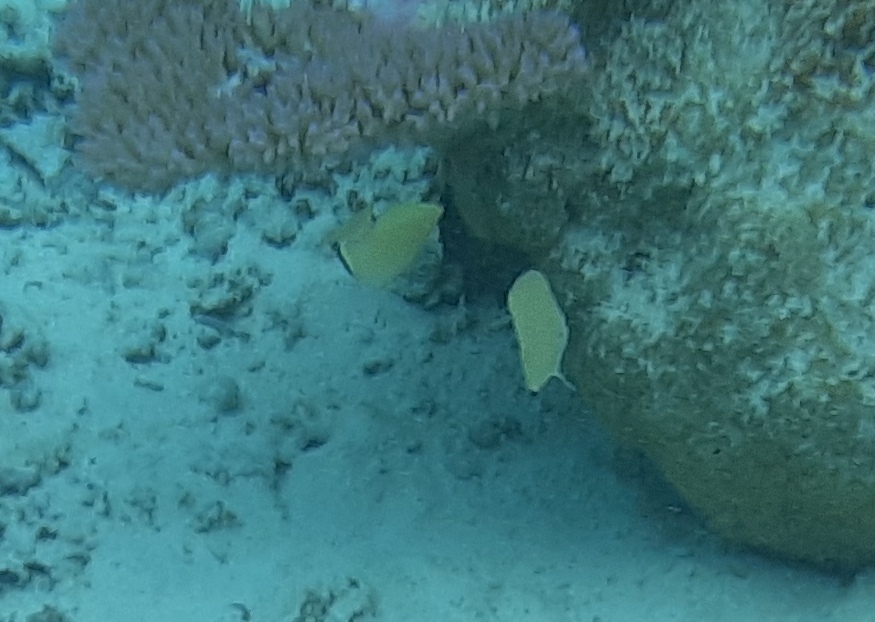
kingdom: Animalia
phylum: Chordata
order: Perciformes
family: Chaetodontidae
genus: Chaetodon
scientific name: Chaetodon citrinellus
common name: Speckled butterflyfish
